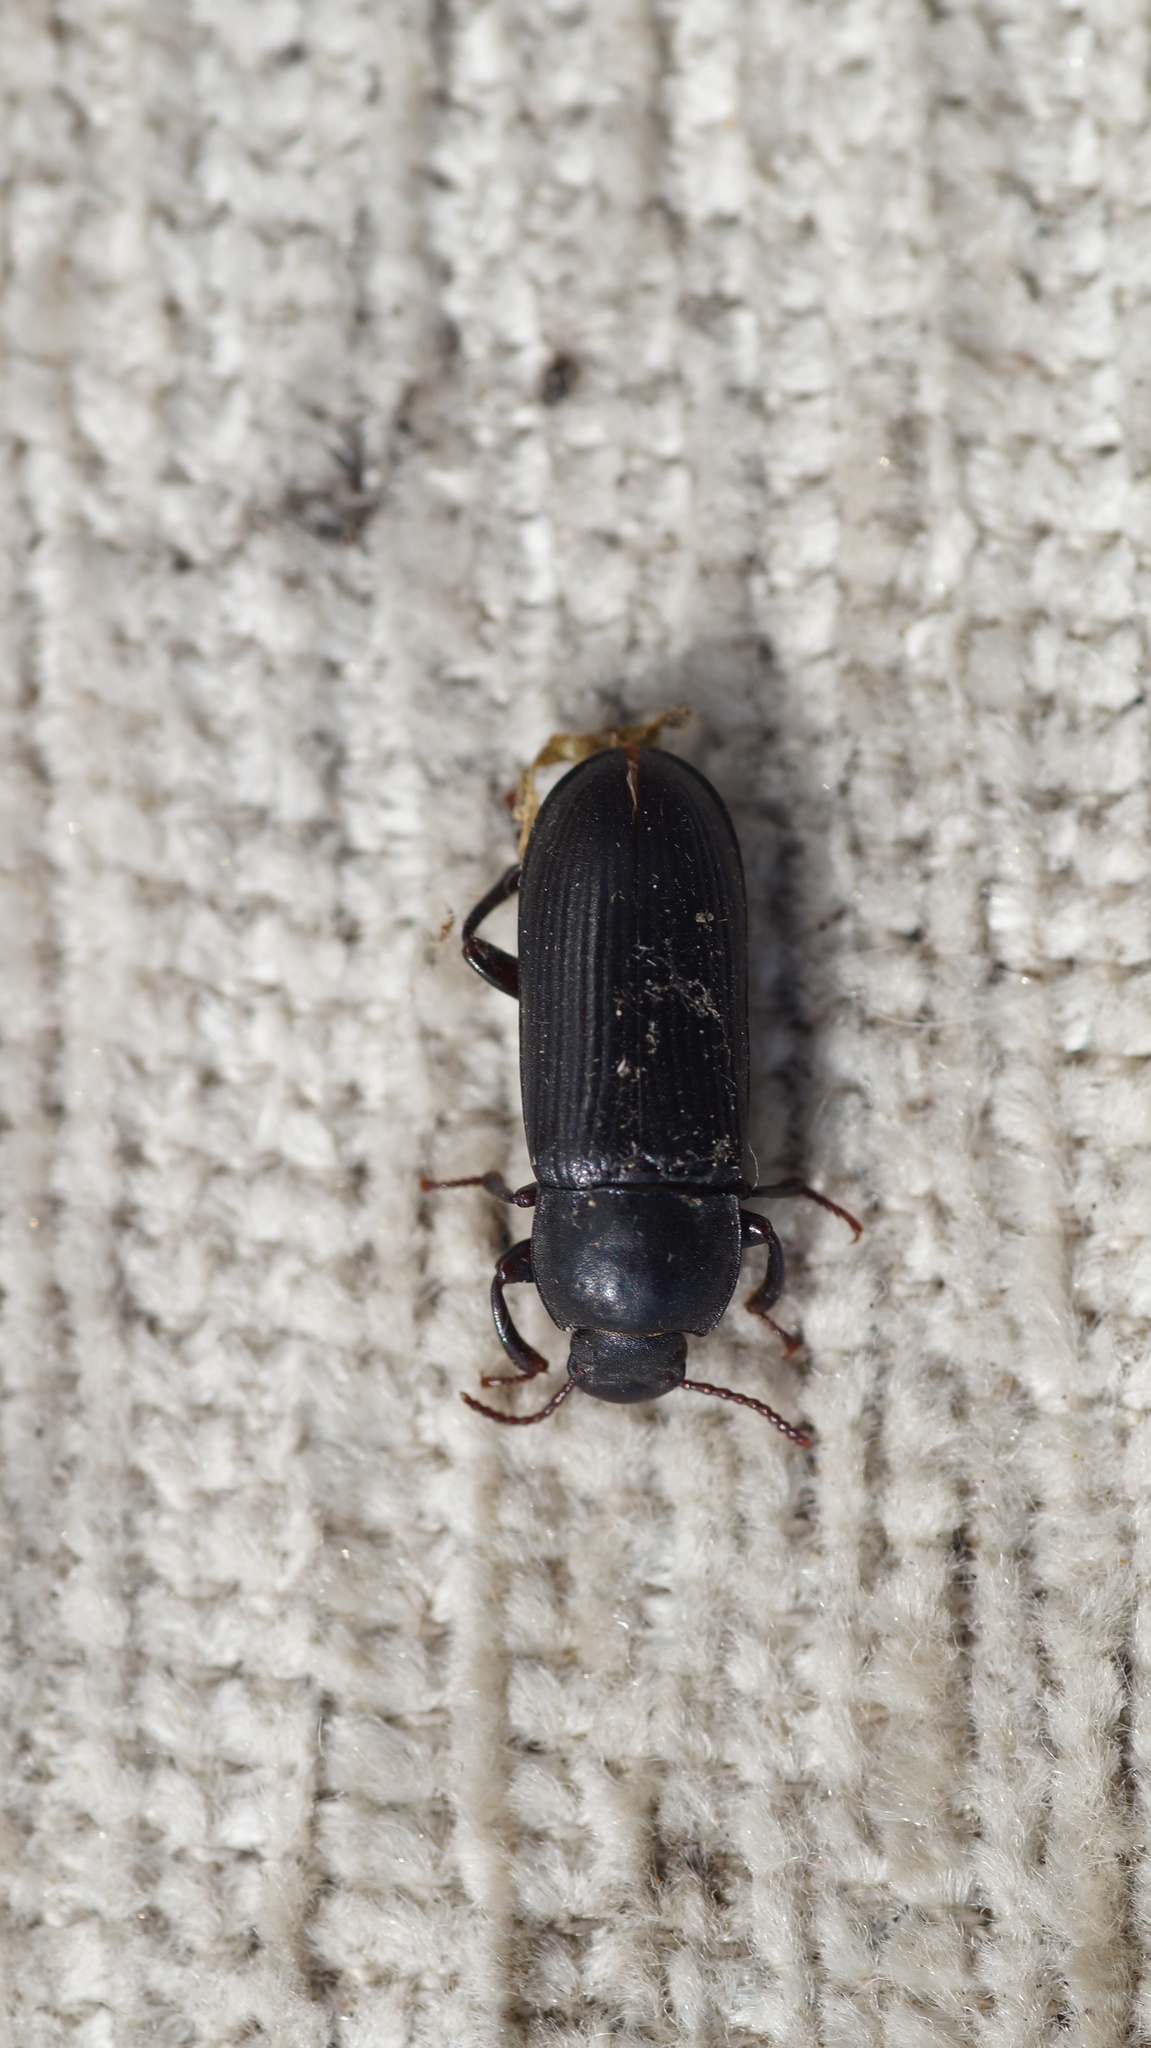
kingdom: Animalia
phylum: Arthropoda
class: Insecta
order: Coleoptera
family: Tenebrionidae
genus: Tenebrio
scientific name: Tenebrio molitor
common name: Hardback beetle
